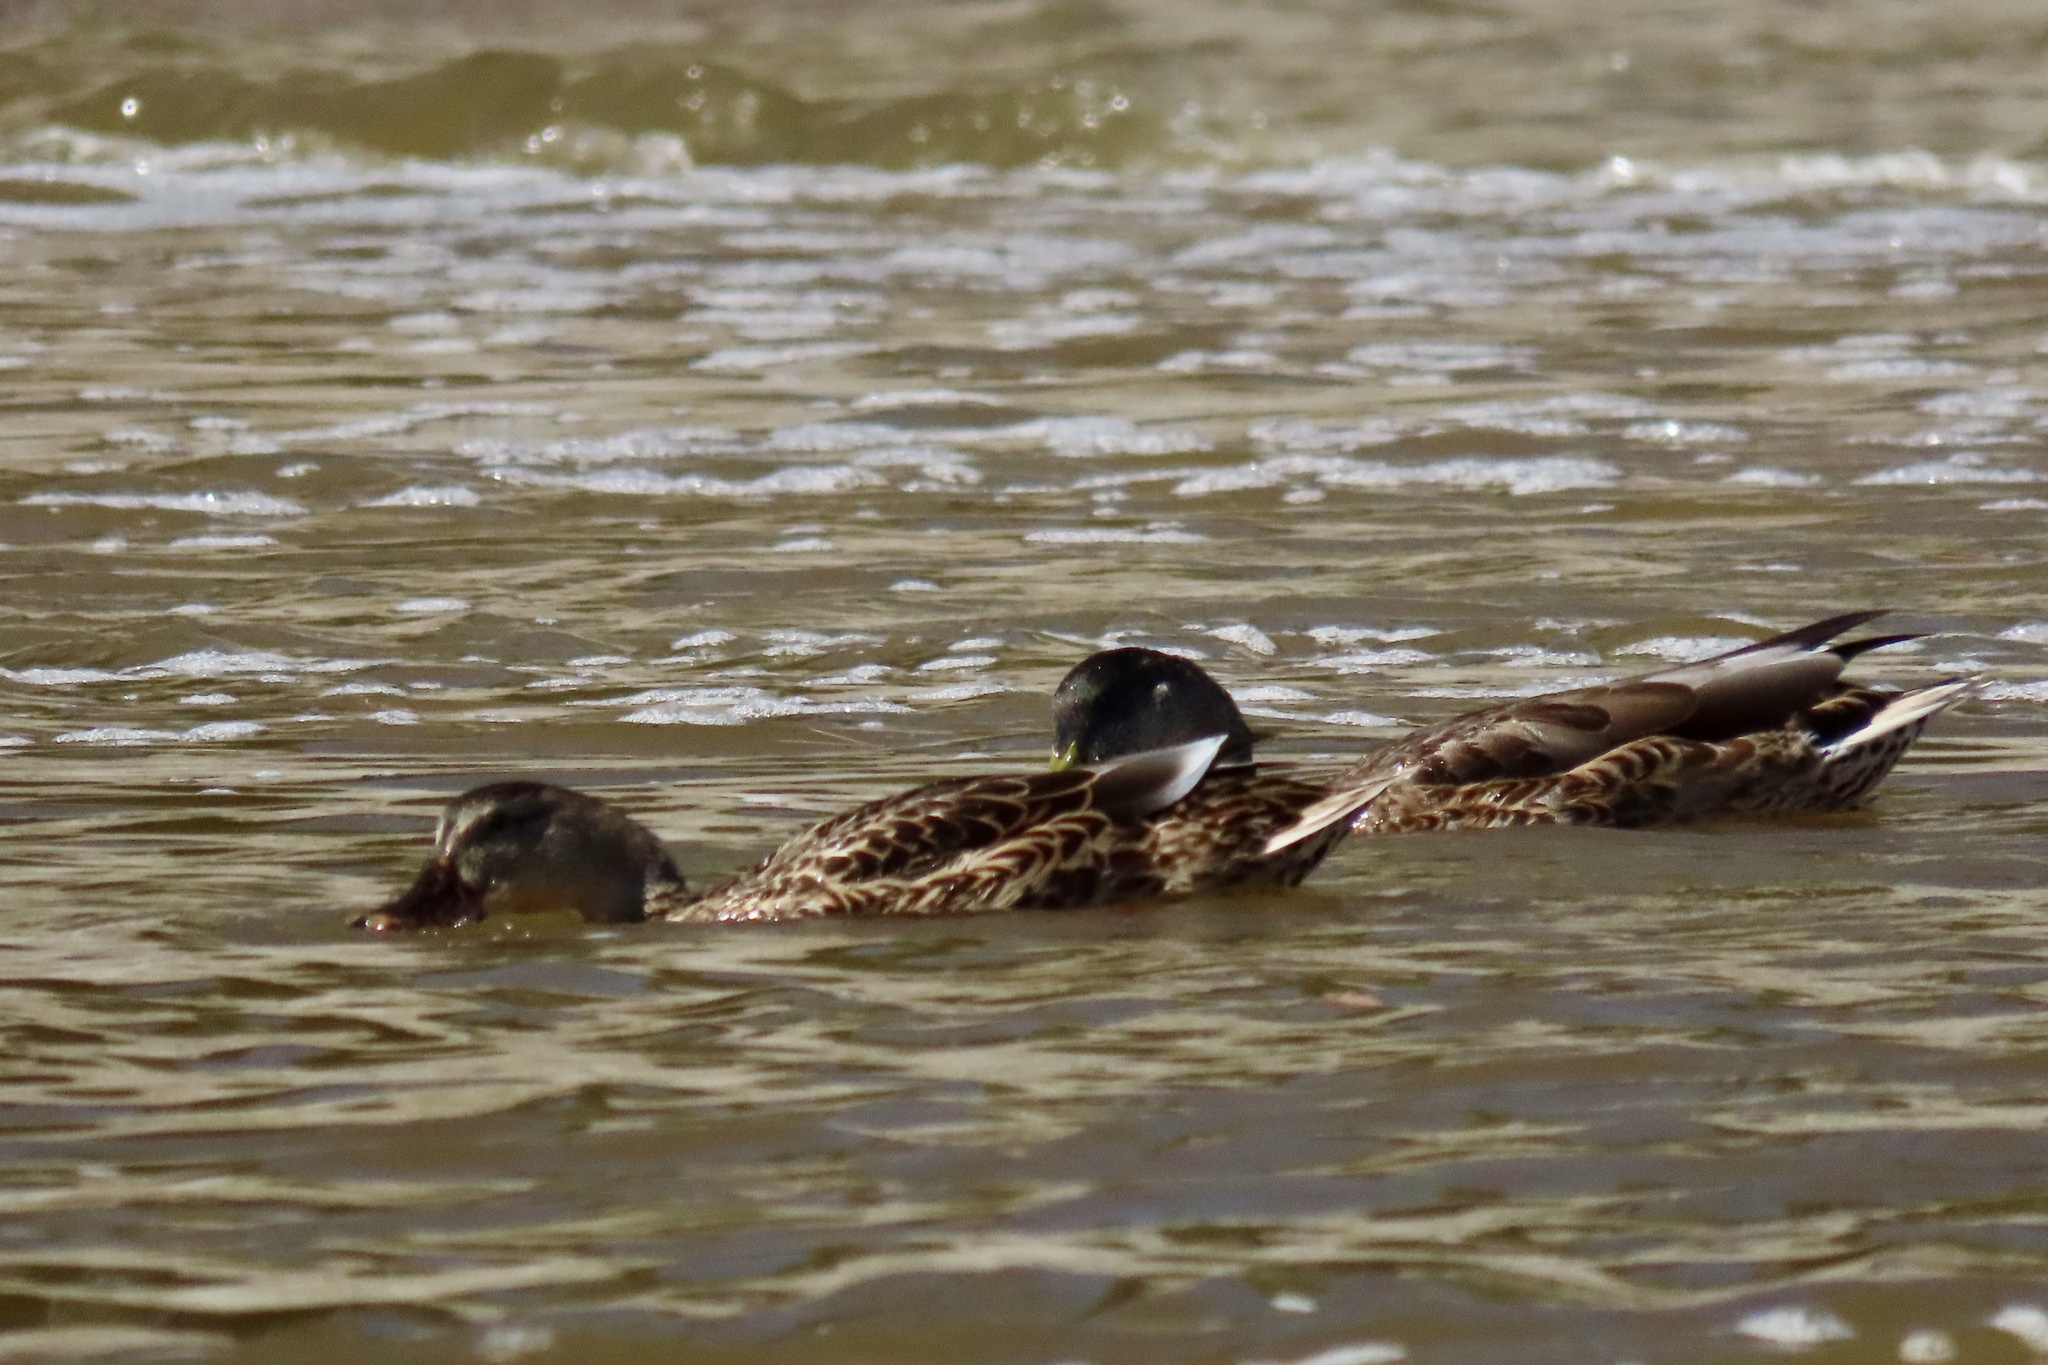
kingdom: Animalia
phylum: Chordata
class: Aves
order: Anseriformes
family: Anatidae
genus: Anas
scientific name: Anas platyrhynchos
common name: Mallard
